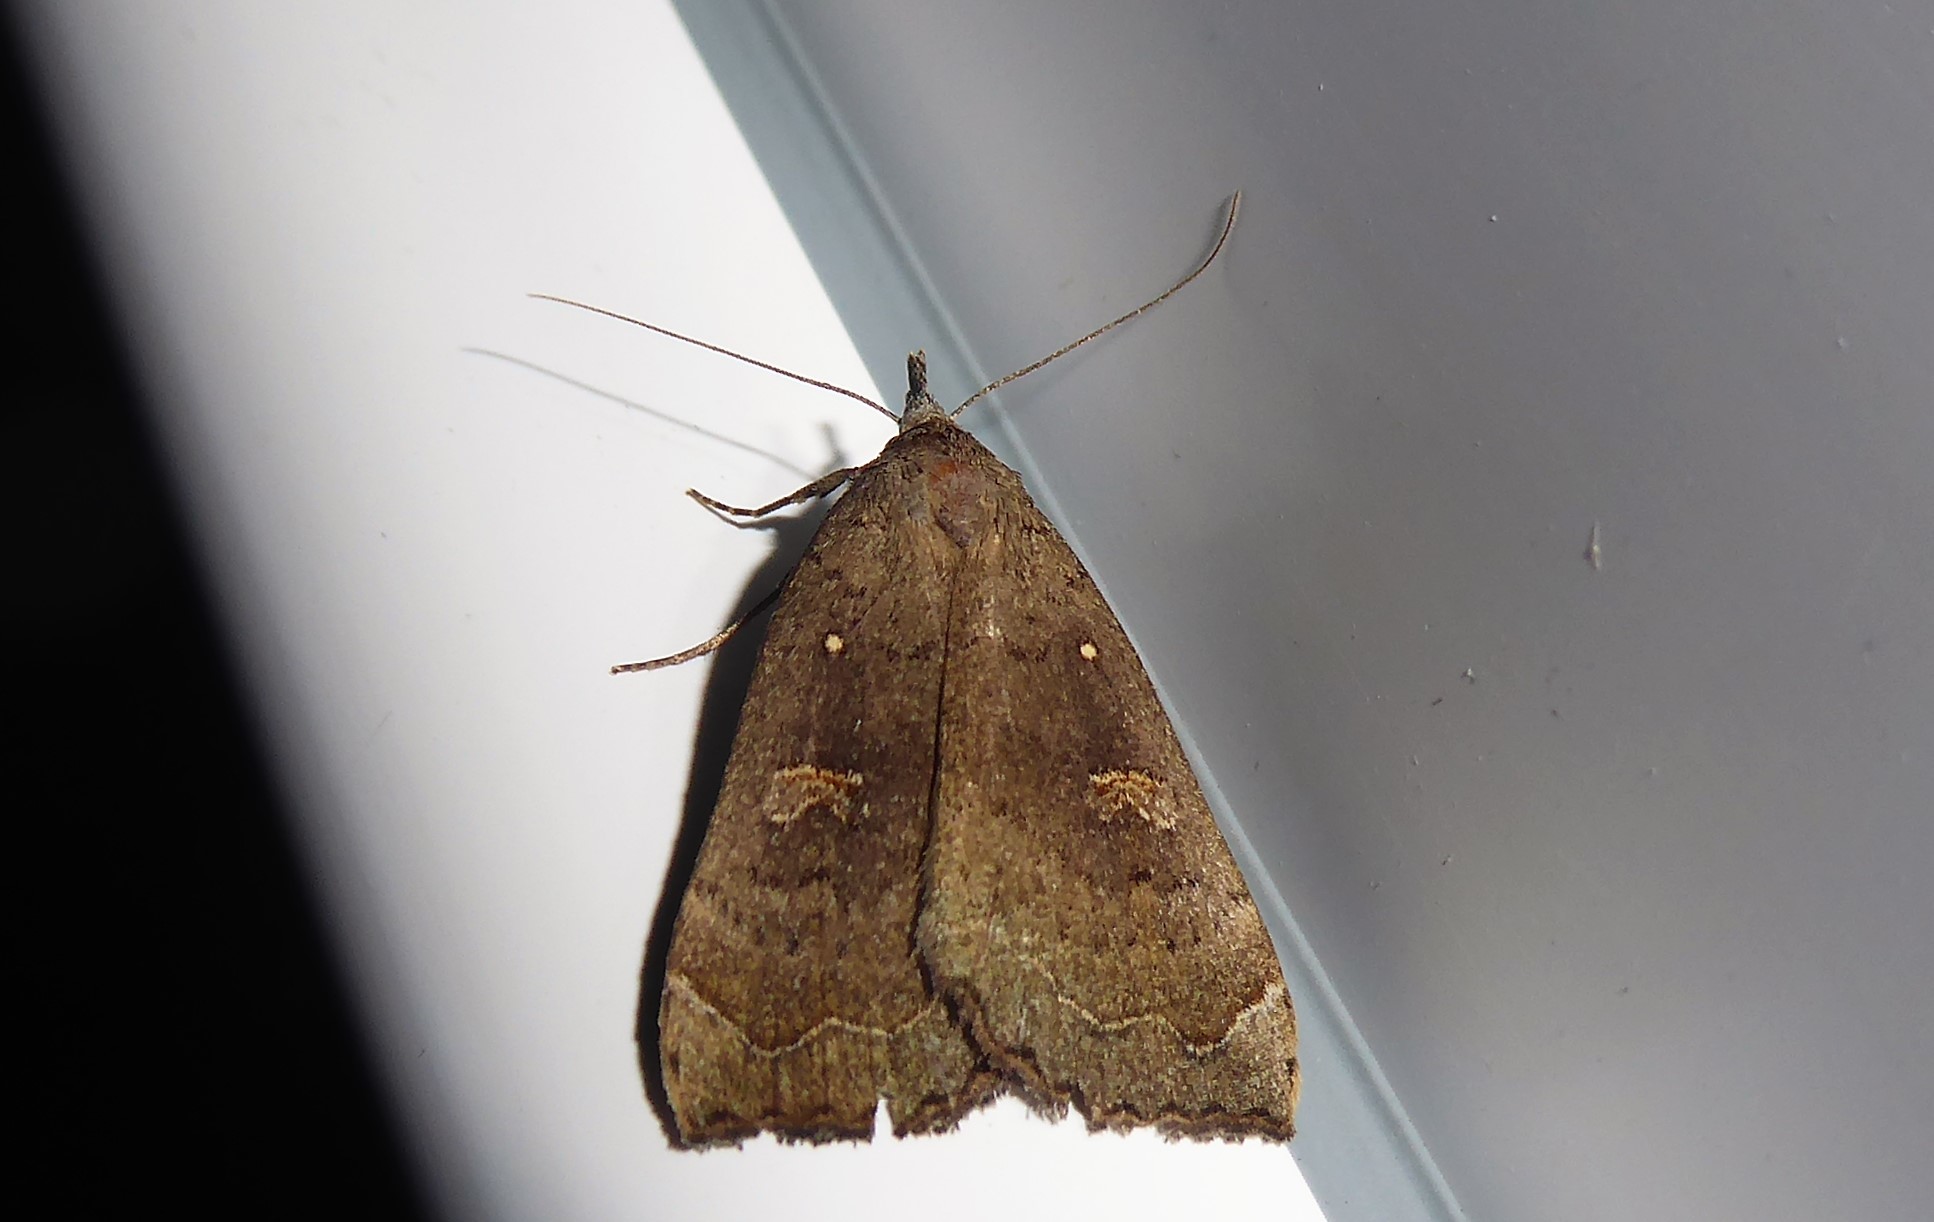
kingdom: Animalia
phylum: Arthropoda
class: Insecta
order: Lepidoptera
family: Erebidae
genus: Rhapsa
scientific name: Rhapsa scotosialis
